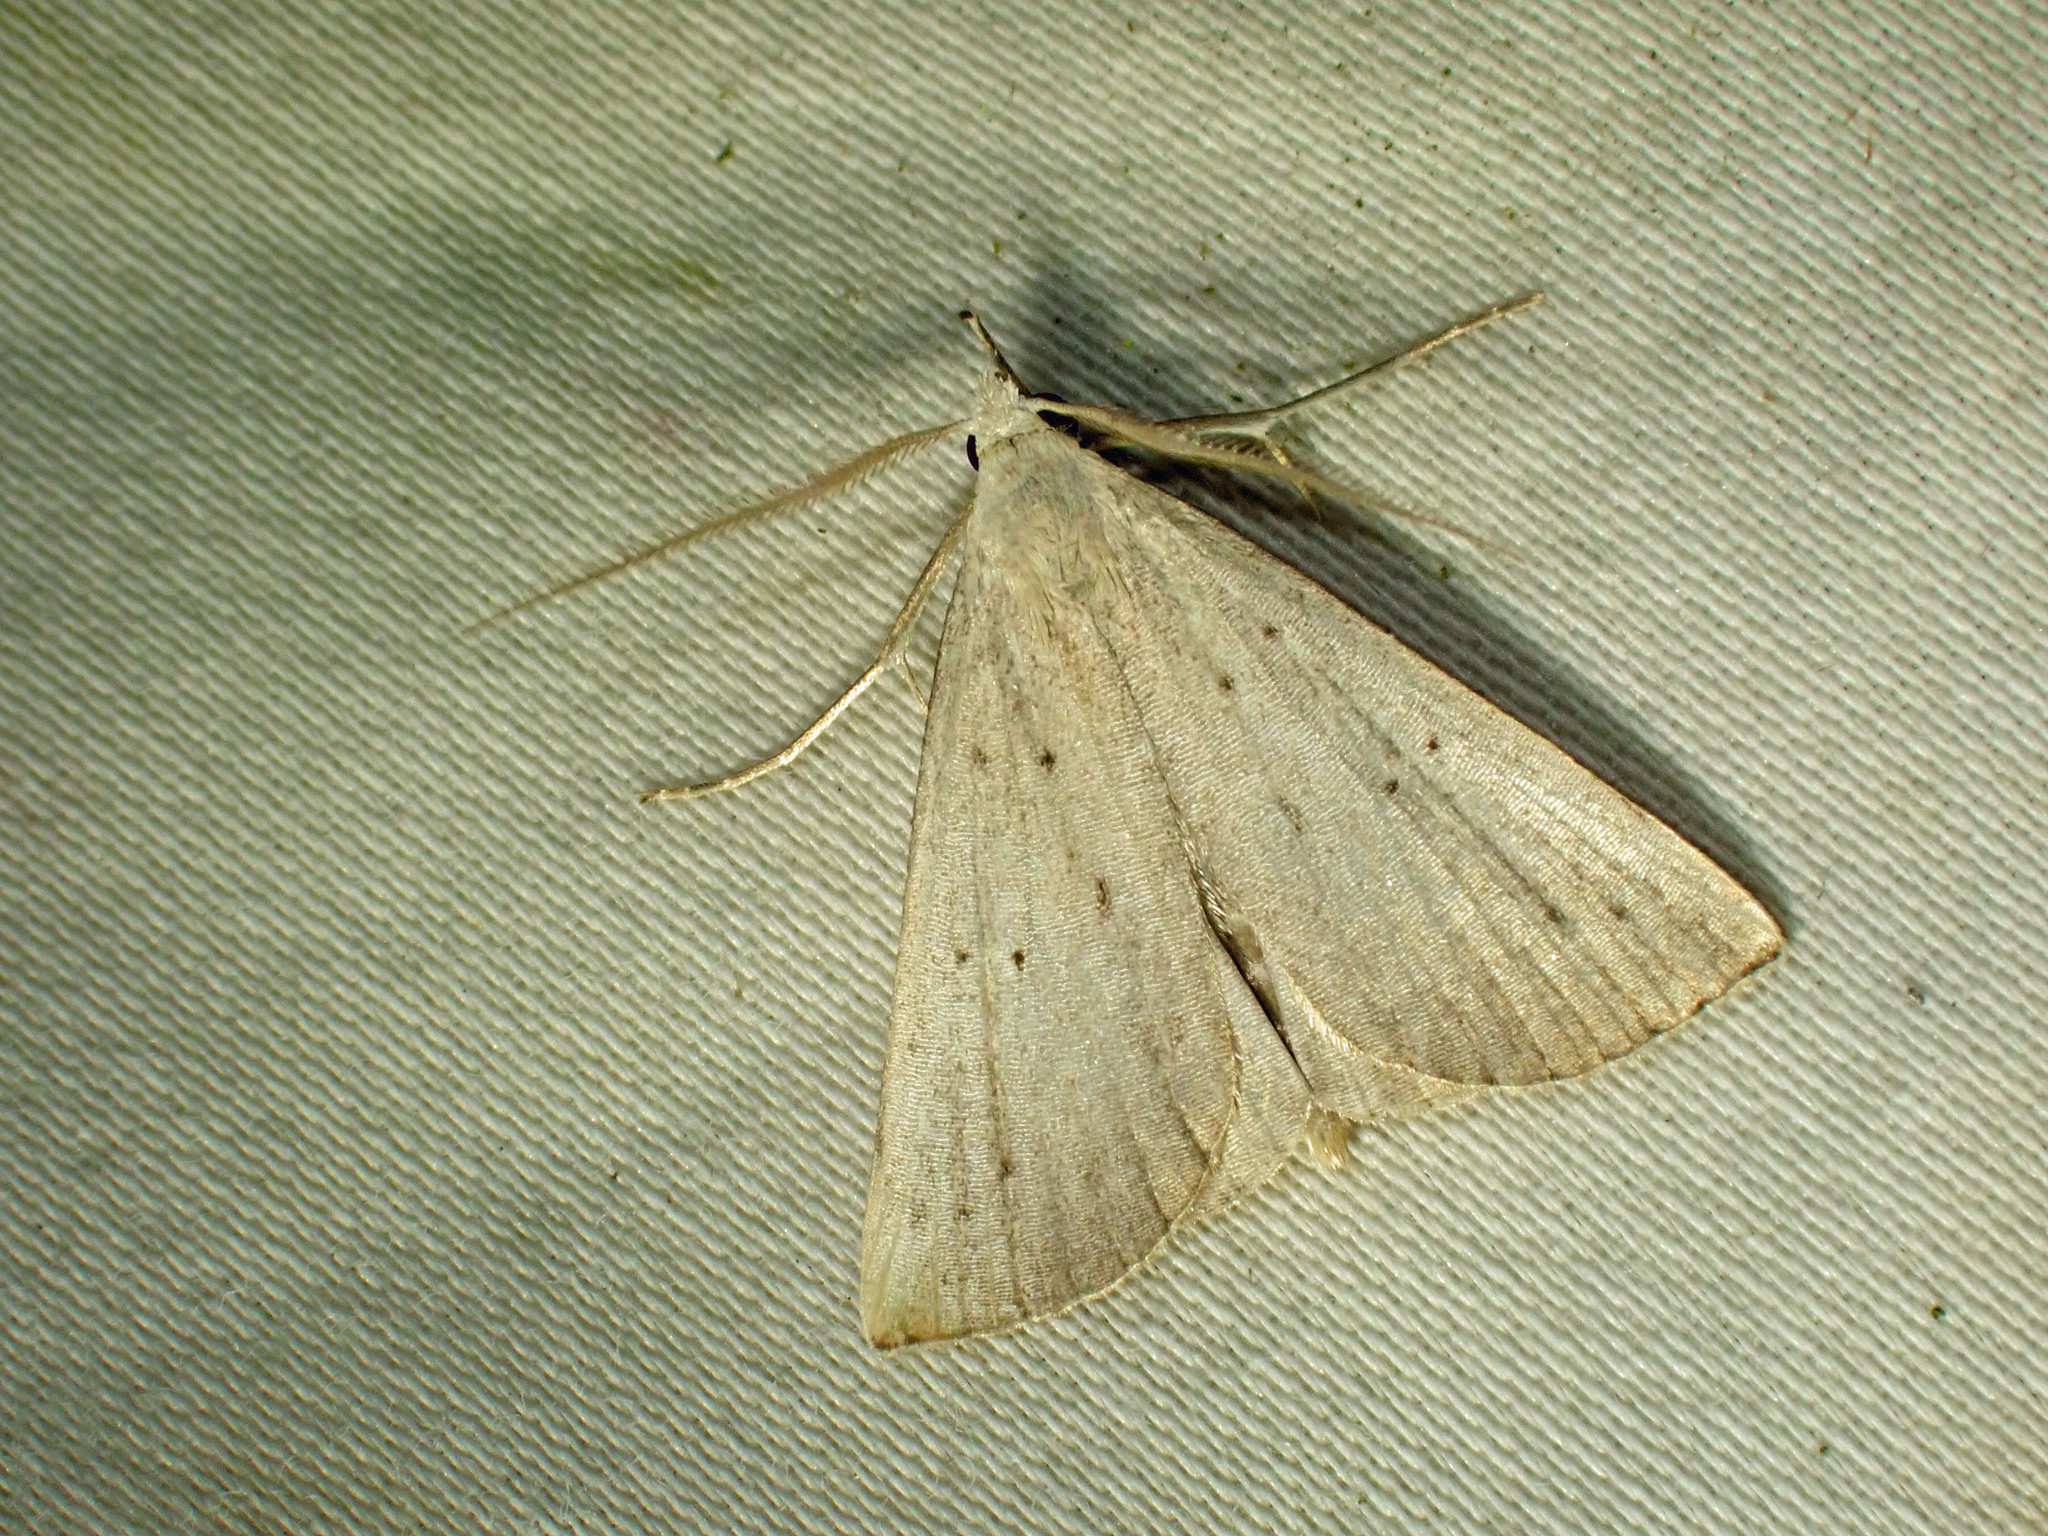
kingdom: Animalia
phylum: Arthropoda
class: Insecta
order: Lepidoptera
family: Erebidae
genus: Macrochilo
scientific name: Macrochilo louisiana
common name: Louisiana macrochilo
